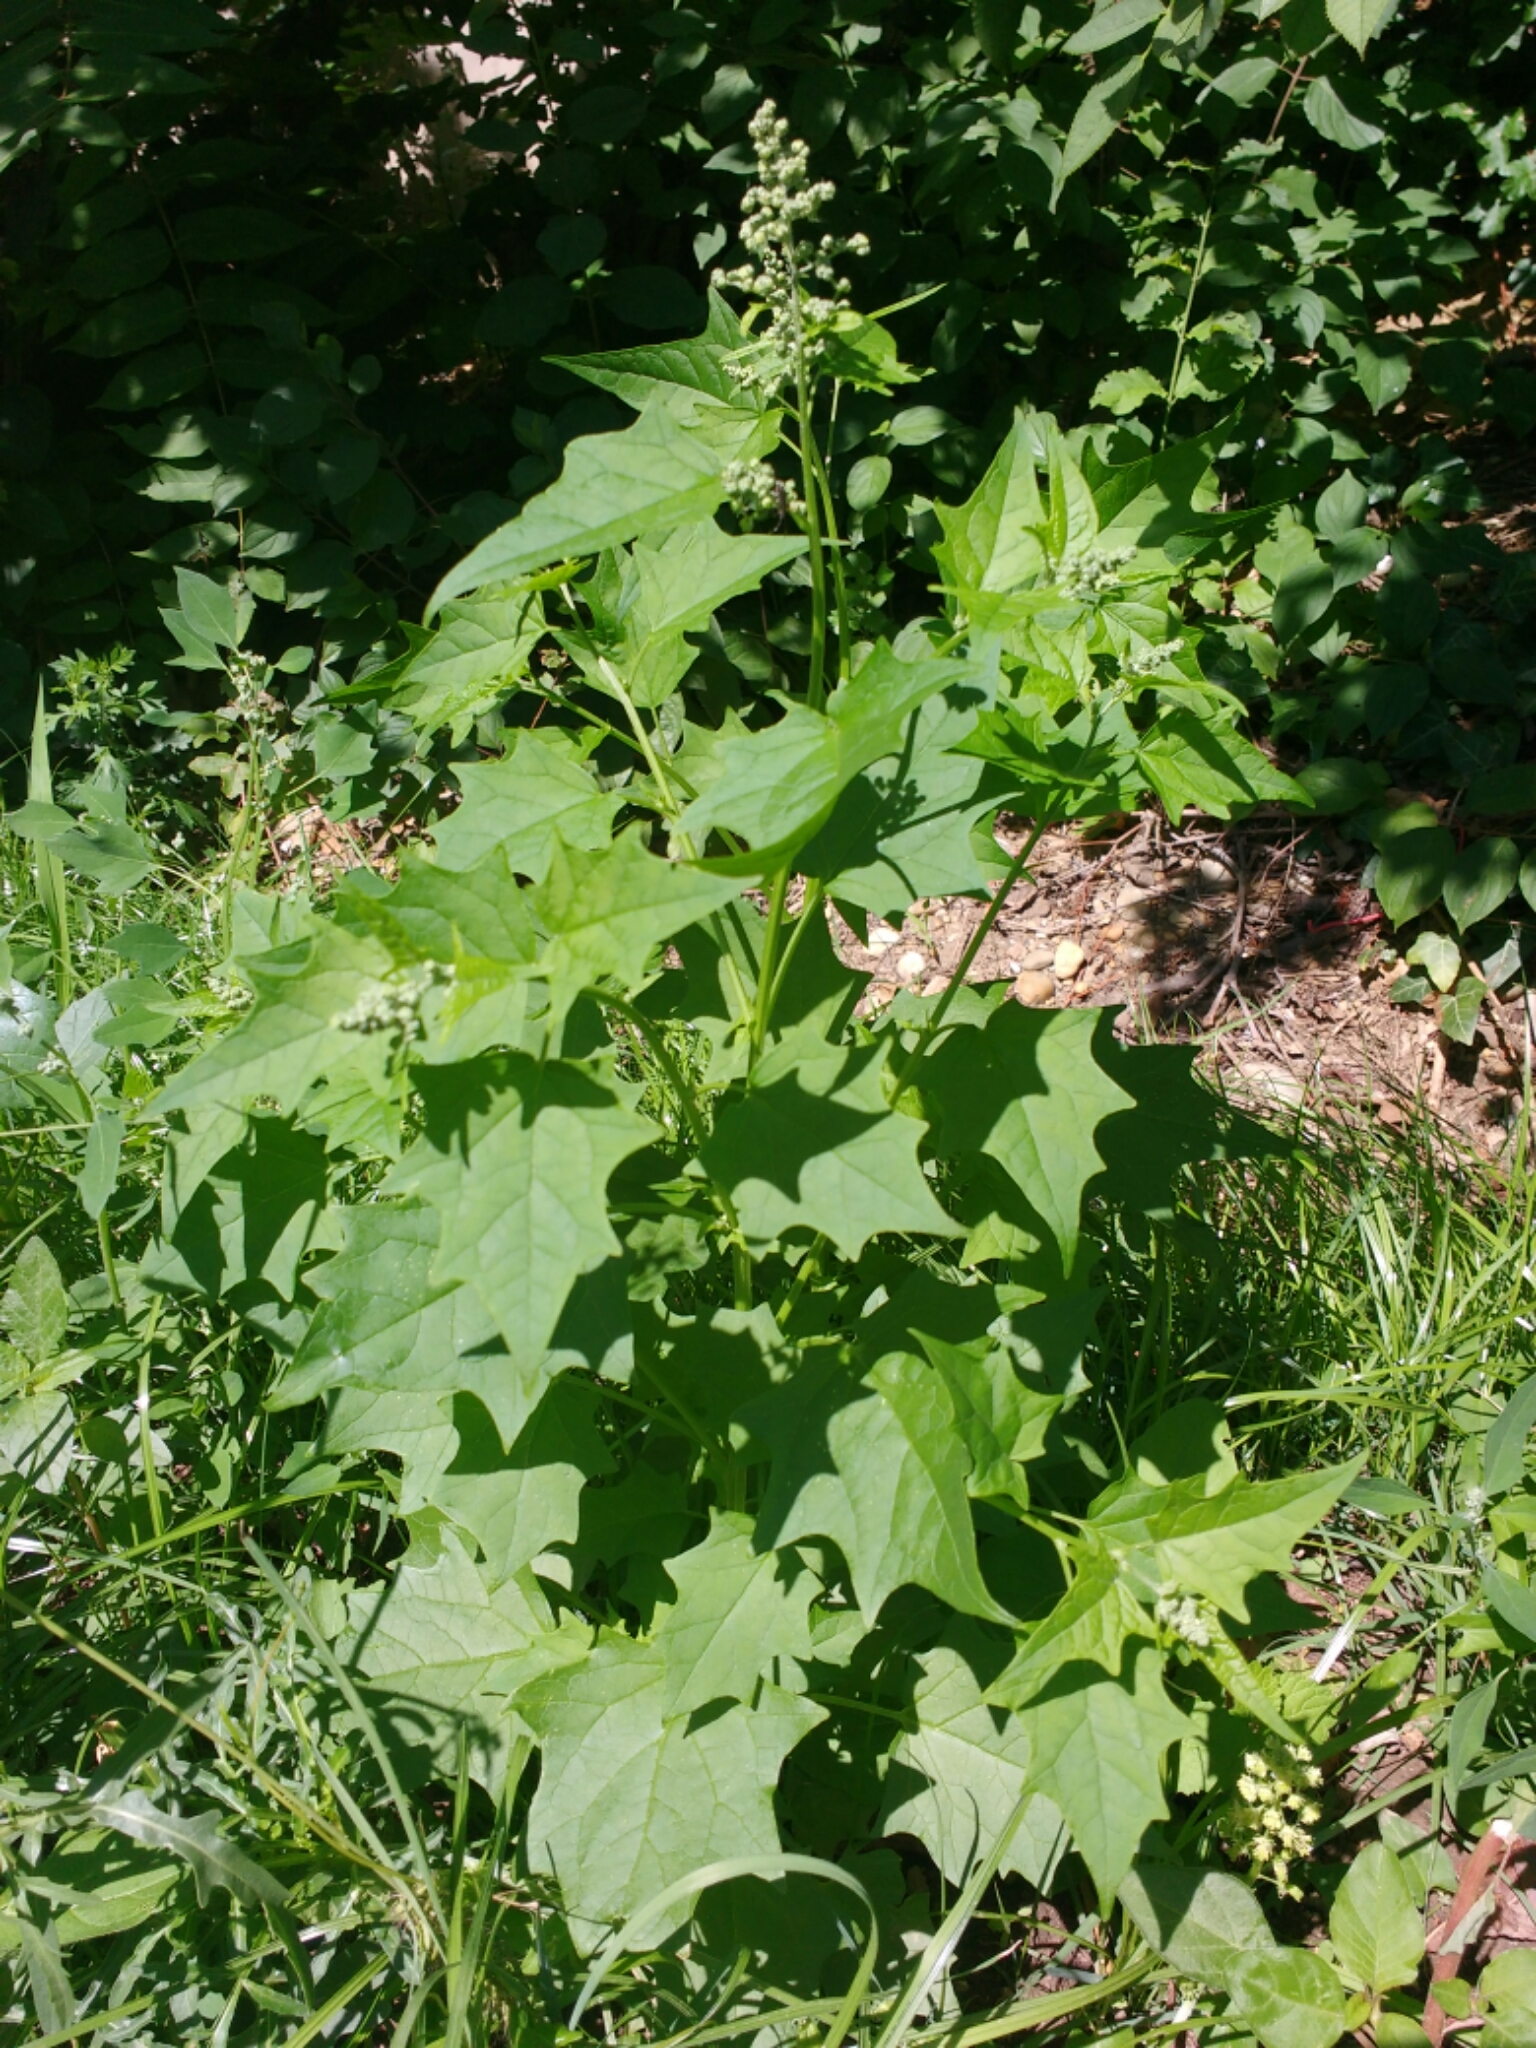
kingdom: Plantae
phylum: Tracheophyta
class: Magnoliopsida
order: Caryophyllales
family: Amaranthaceae
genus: Chenopodiastrum
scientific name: Chenopodiastrum hybridum
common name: Mapleleaf goosefoot
